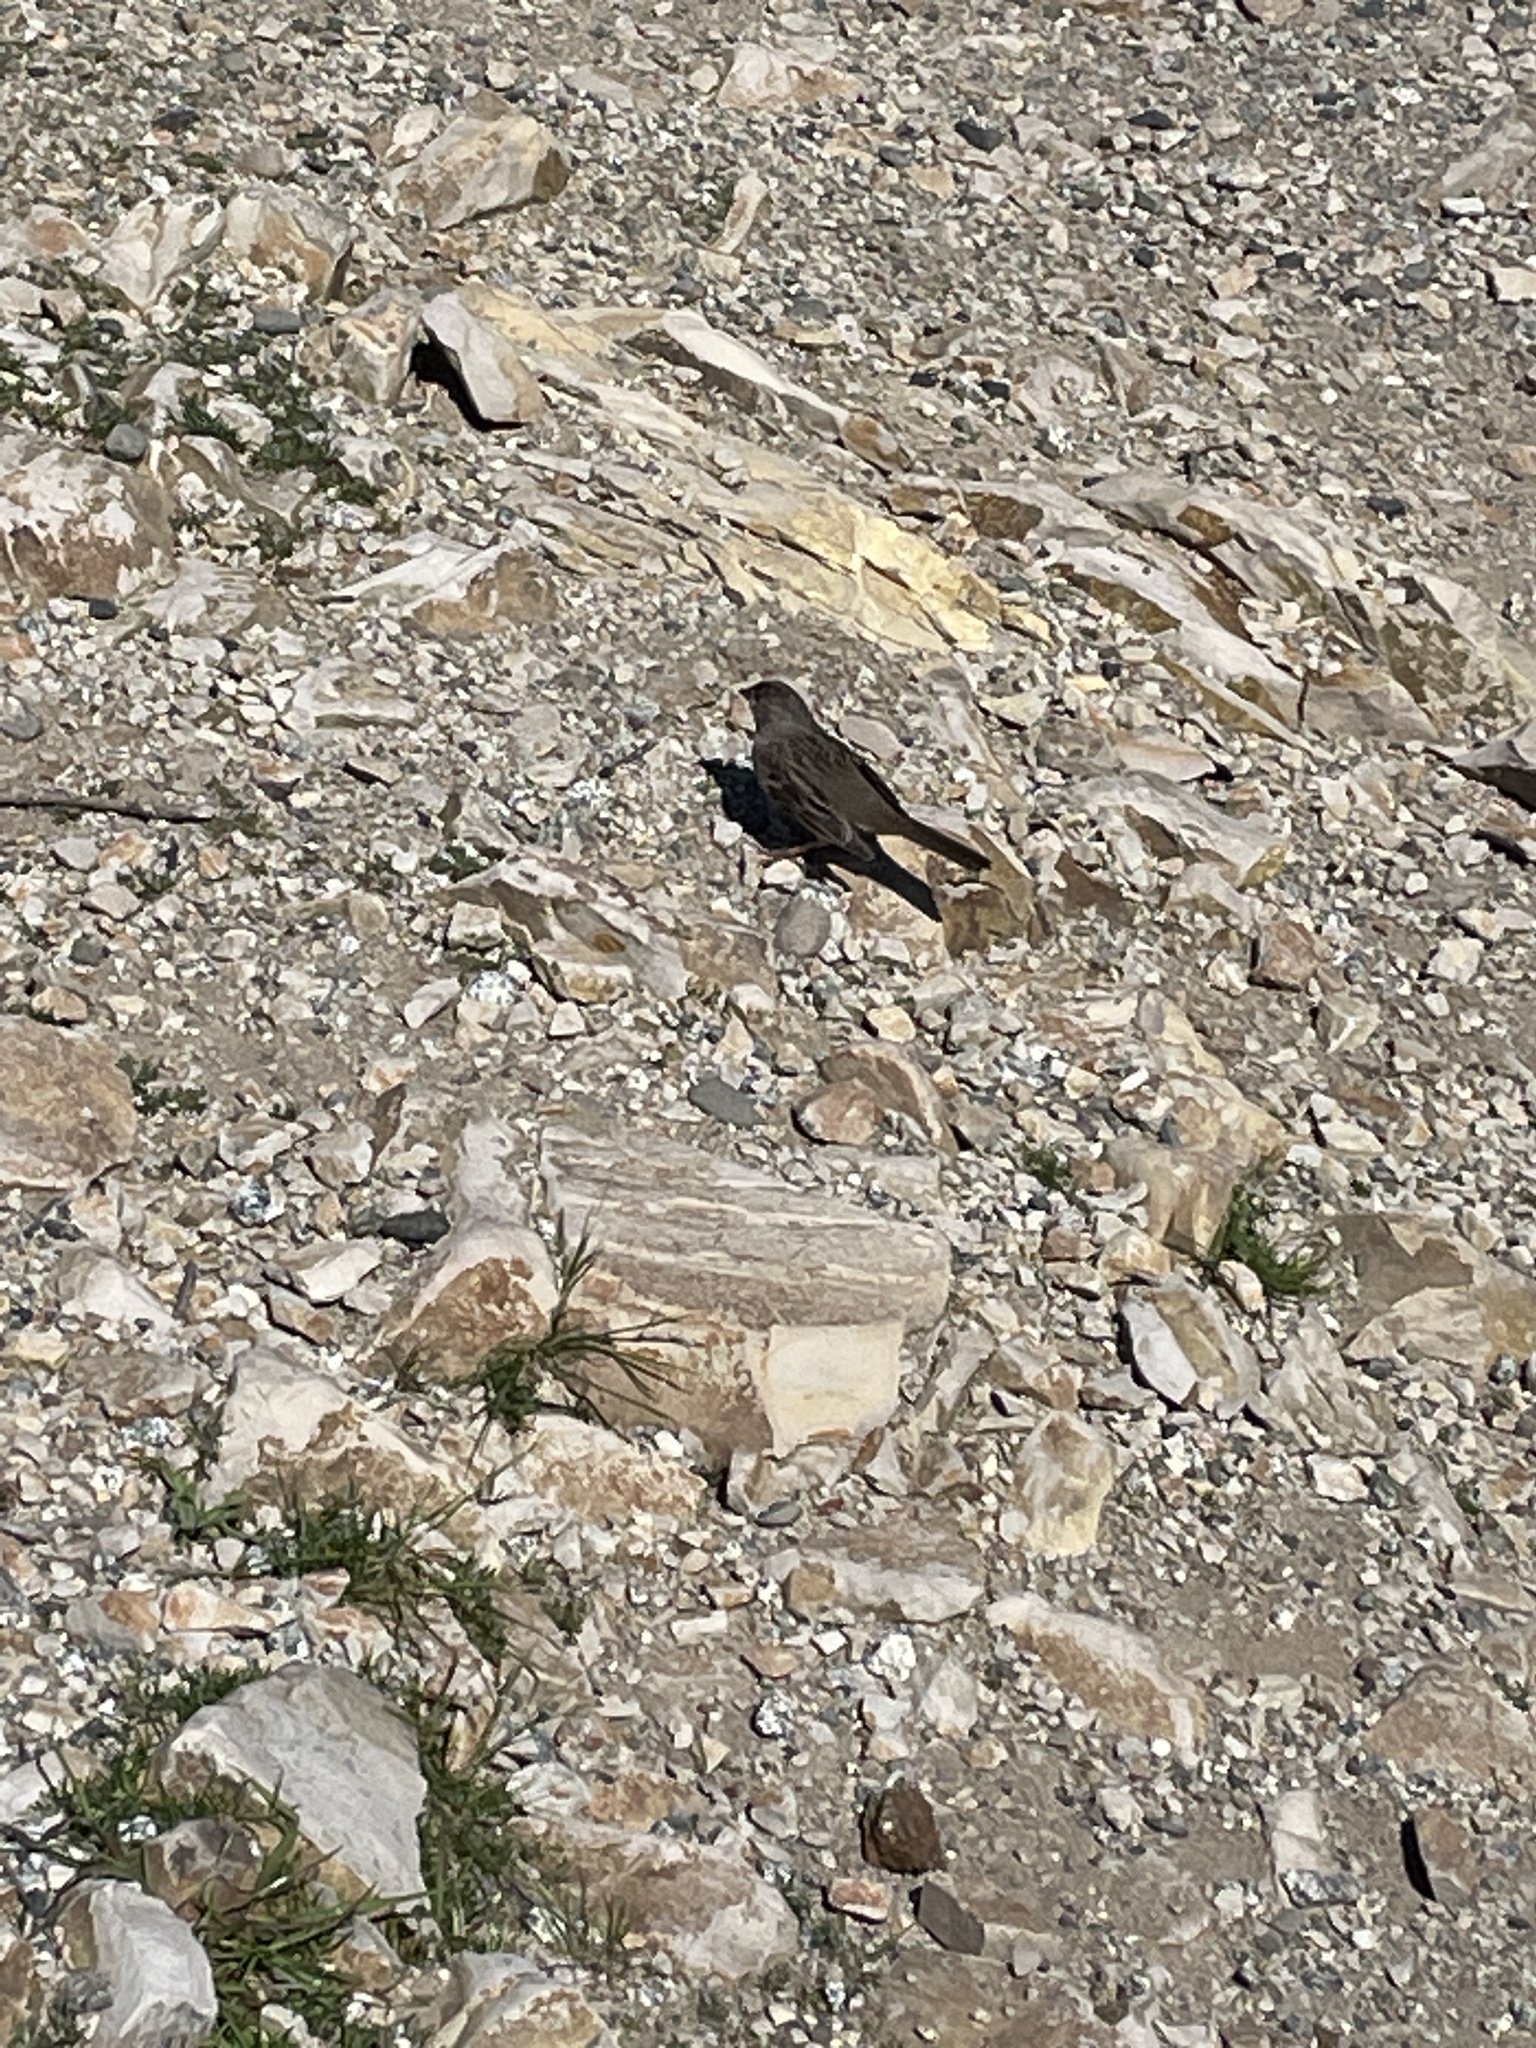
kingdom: Animalia
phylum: Chordata
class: Aves
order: Passeriformes
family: Passerellidae
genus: Zonotrichia
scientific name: Zonotrichia atricapilla
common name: Golden-crowned sparrow
